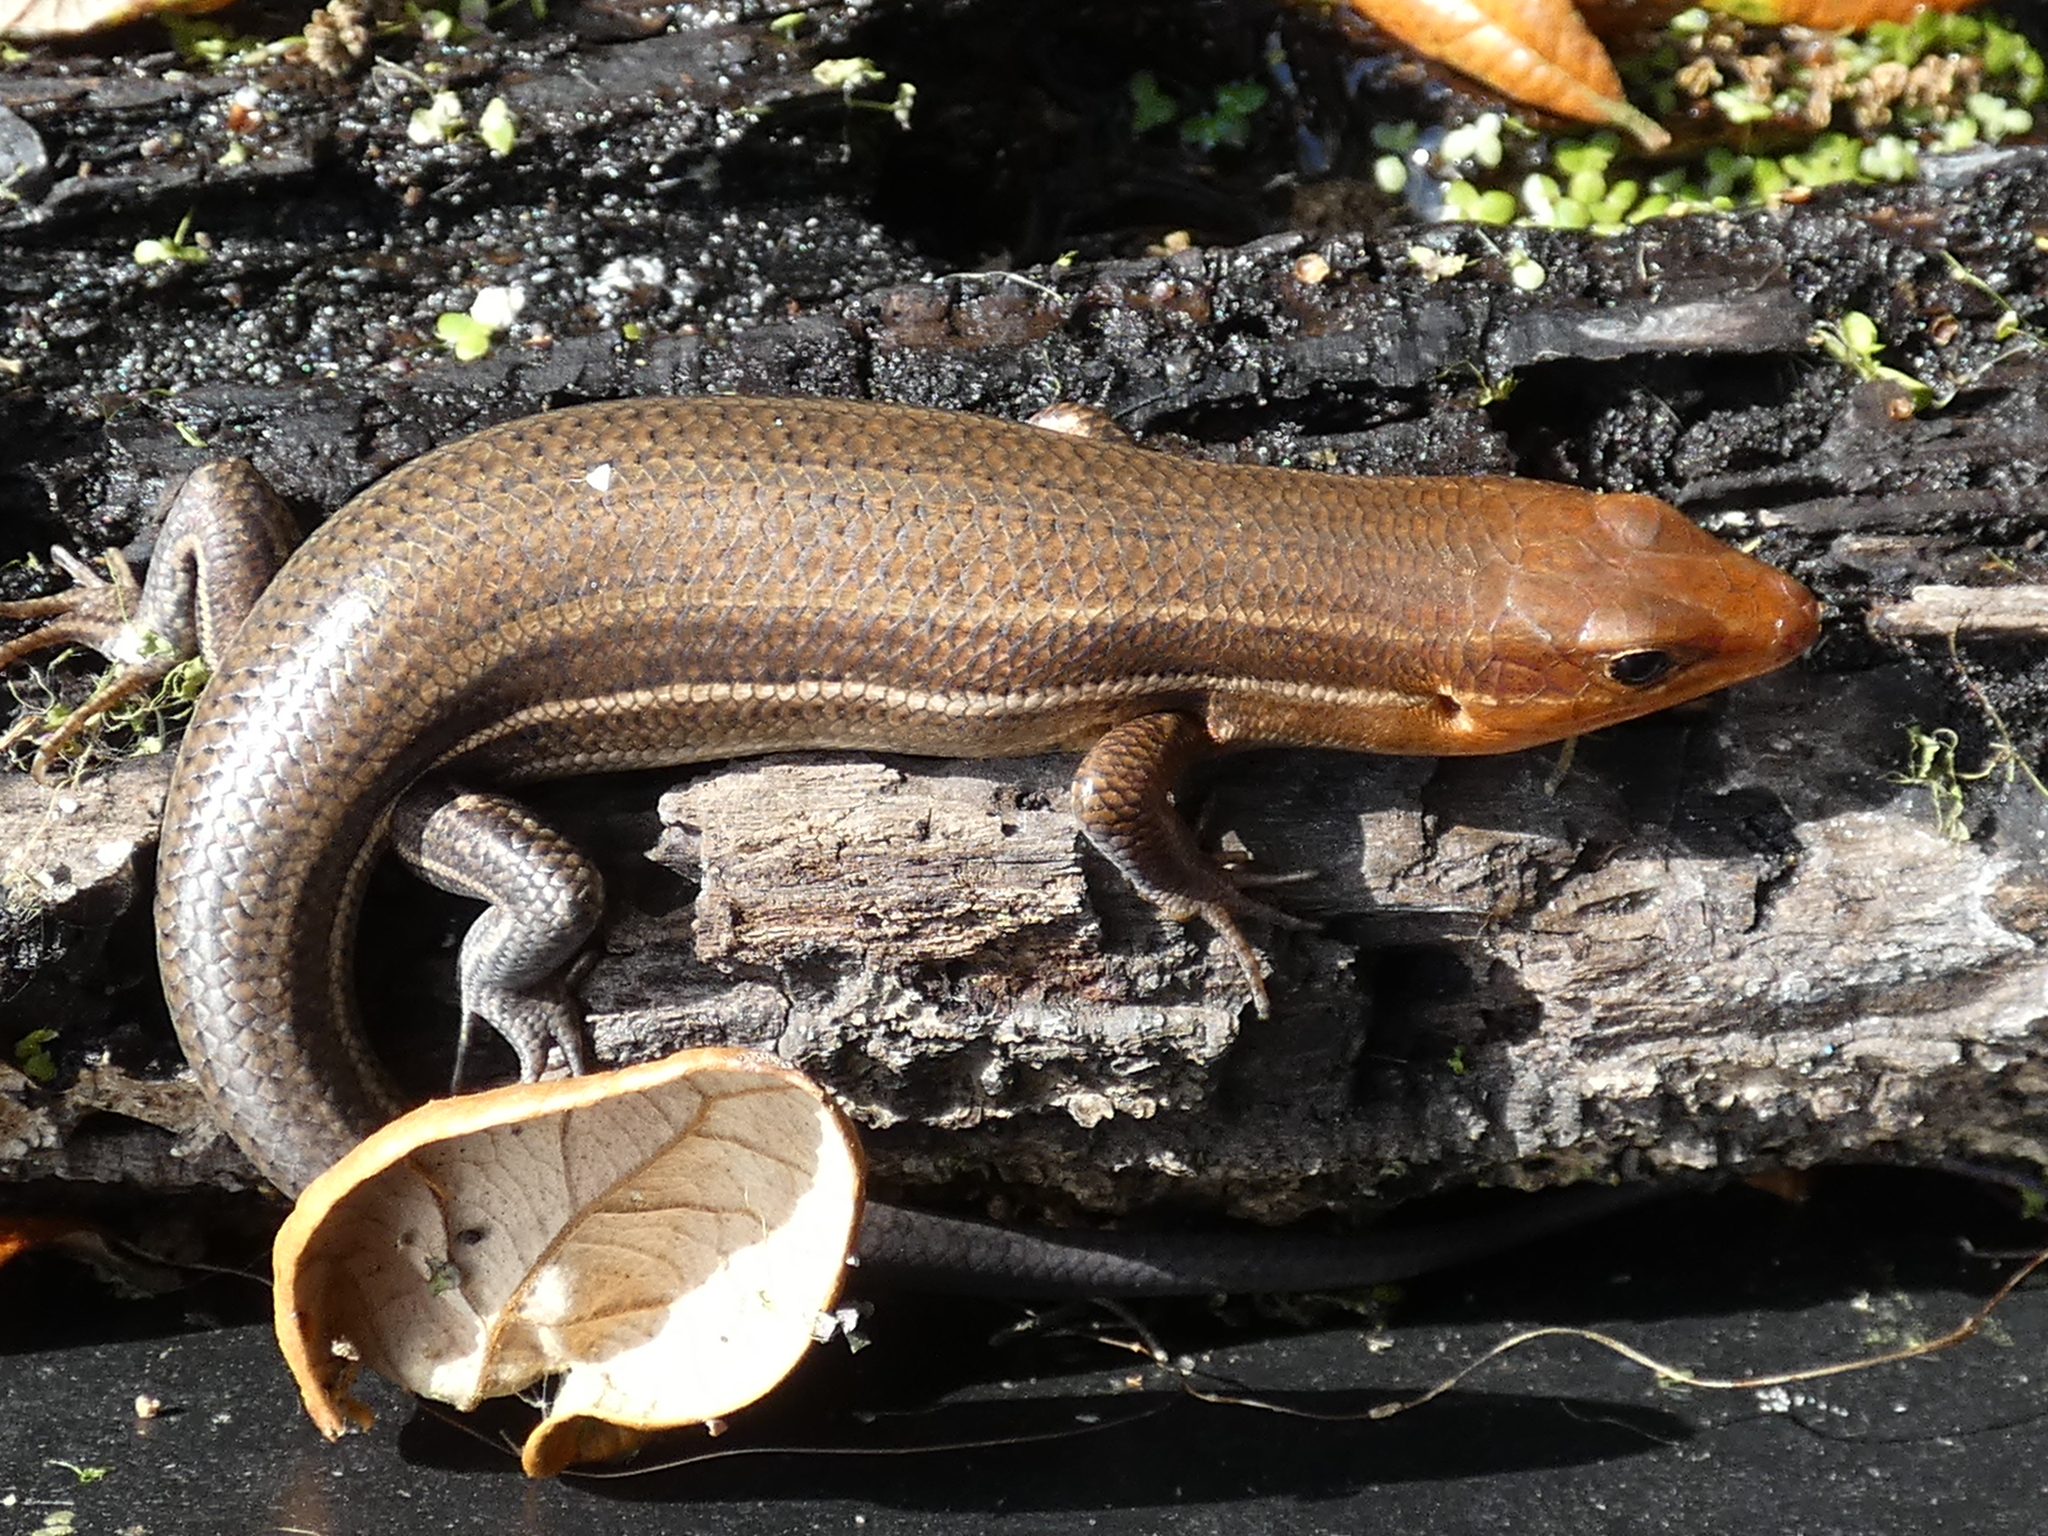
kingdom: Animalia
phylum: Chordata
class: Squamata
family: Scincidae
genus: Plestiodon
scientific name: Plestiodon laticeps
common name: Broadhead skink
